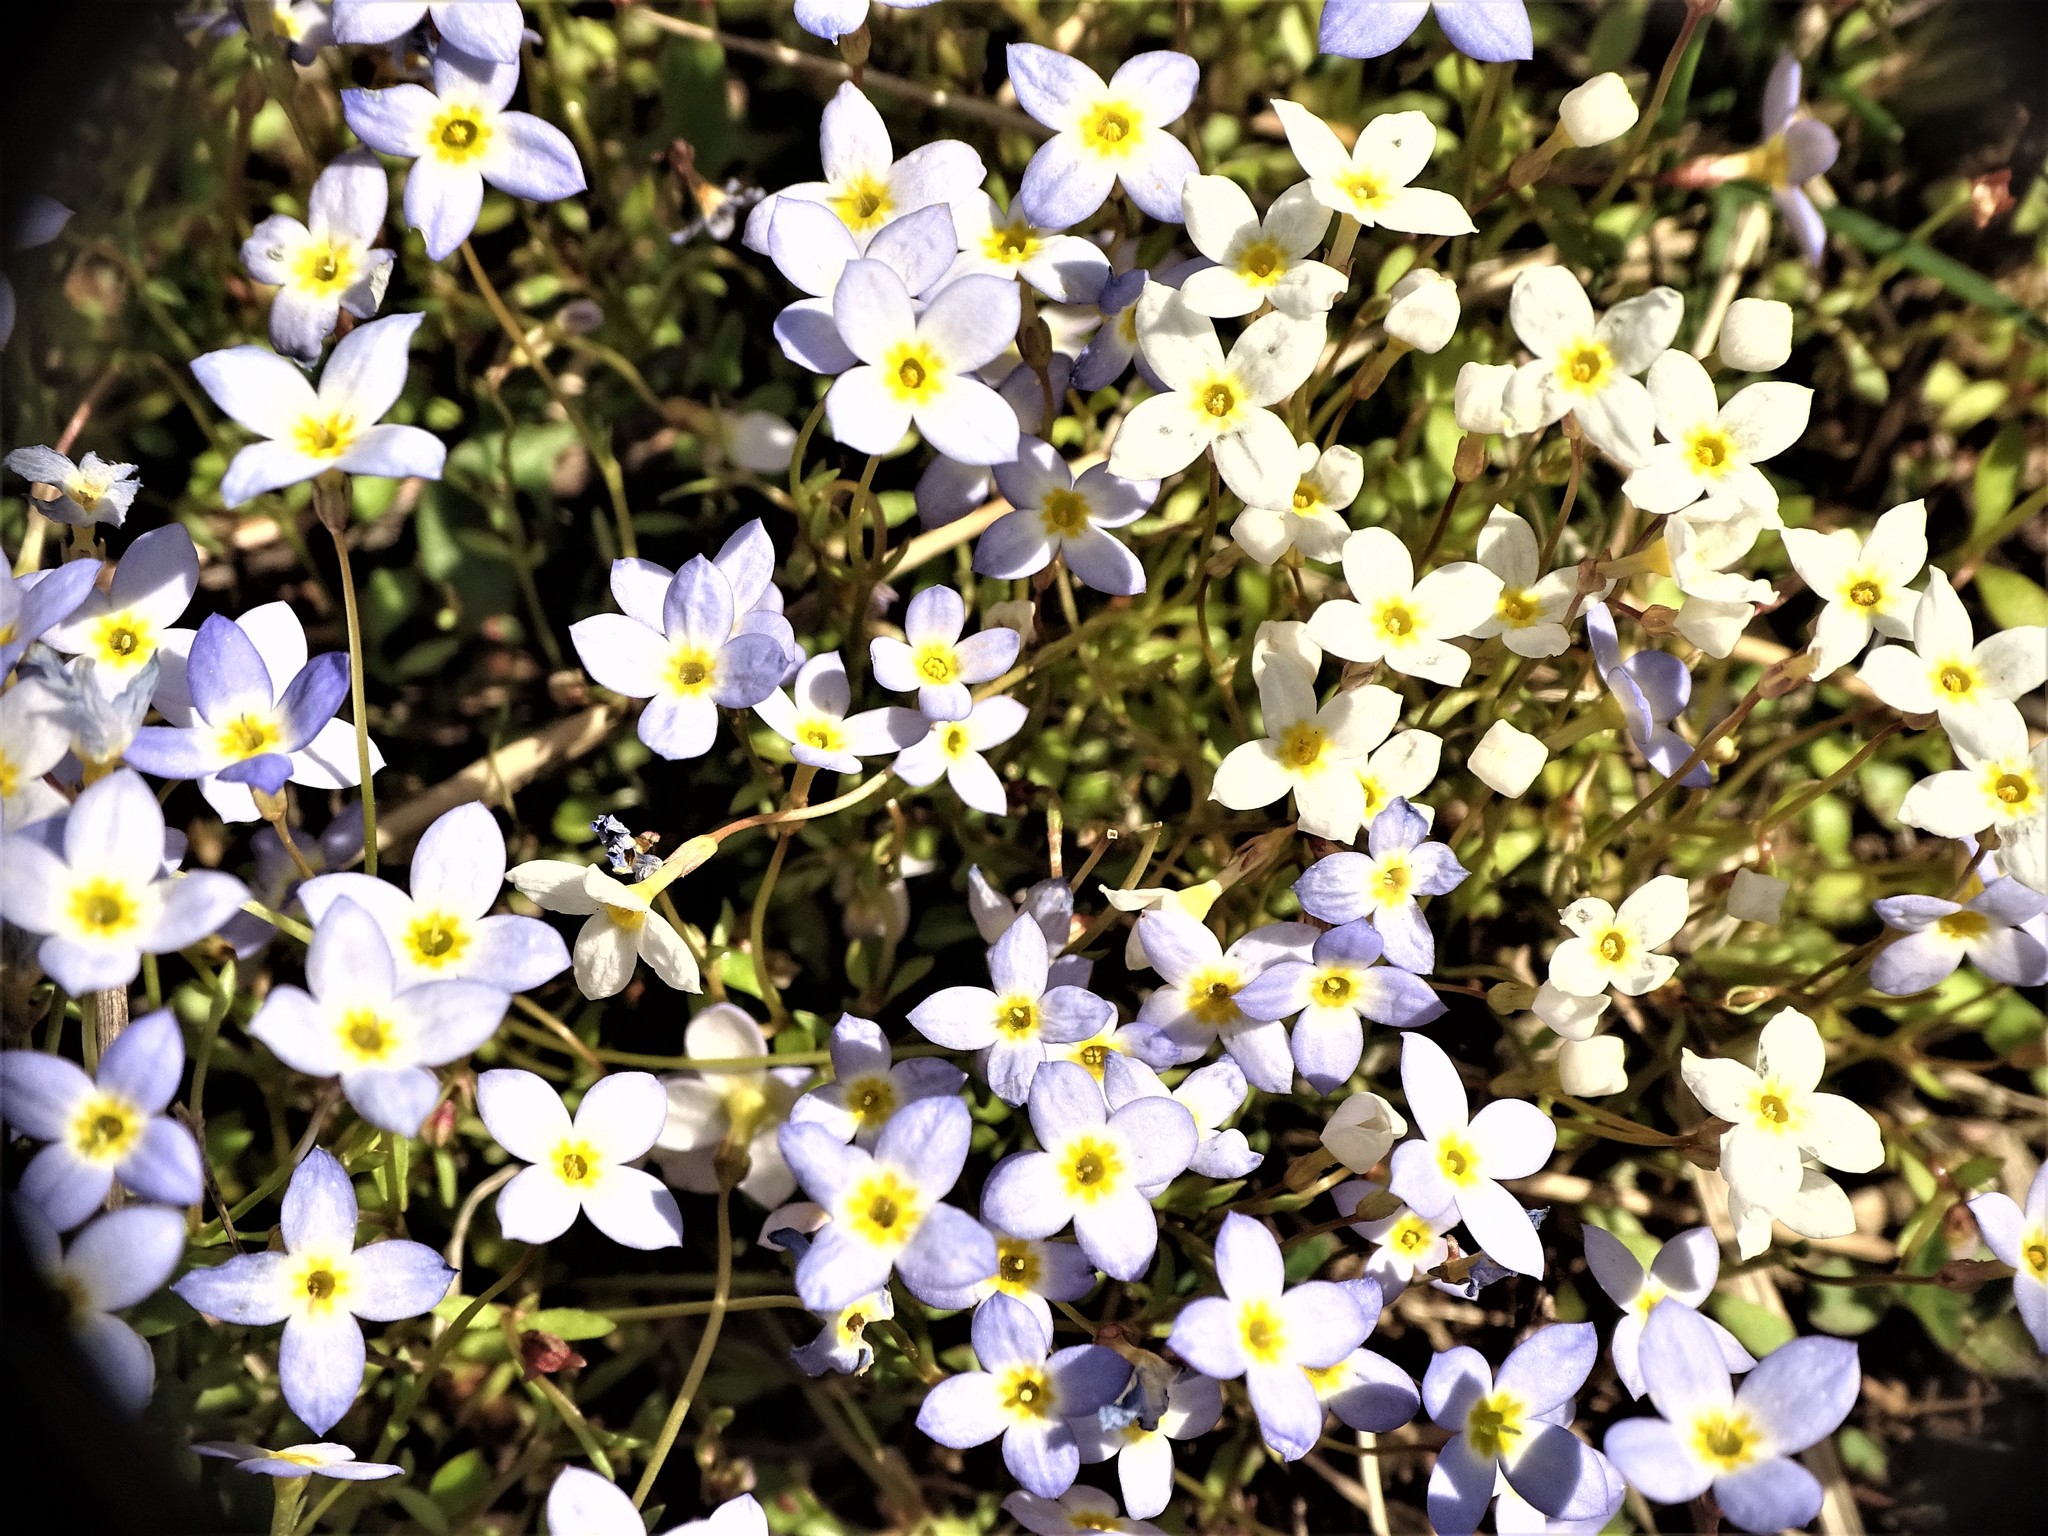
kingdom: Plantae
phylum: Tracheophyta
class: Magnoliopsida
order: Gentianales
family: Rubiaceae
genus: Houstonia
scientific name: Houstonia caerulea
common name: Bluets
